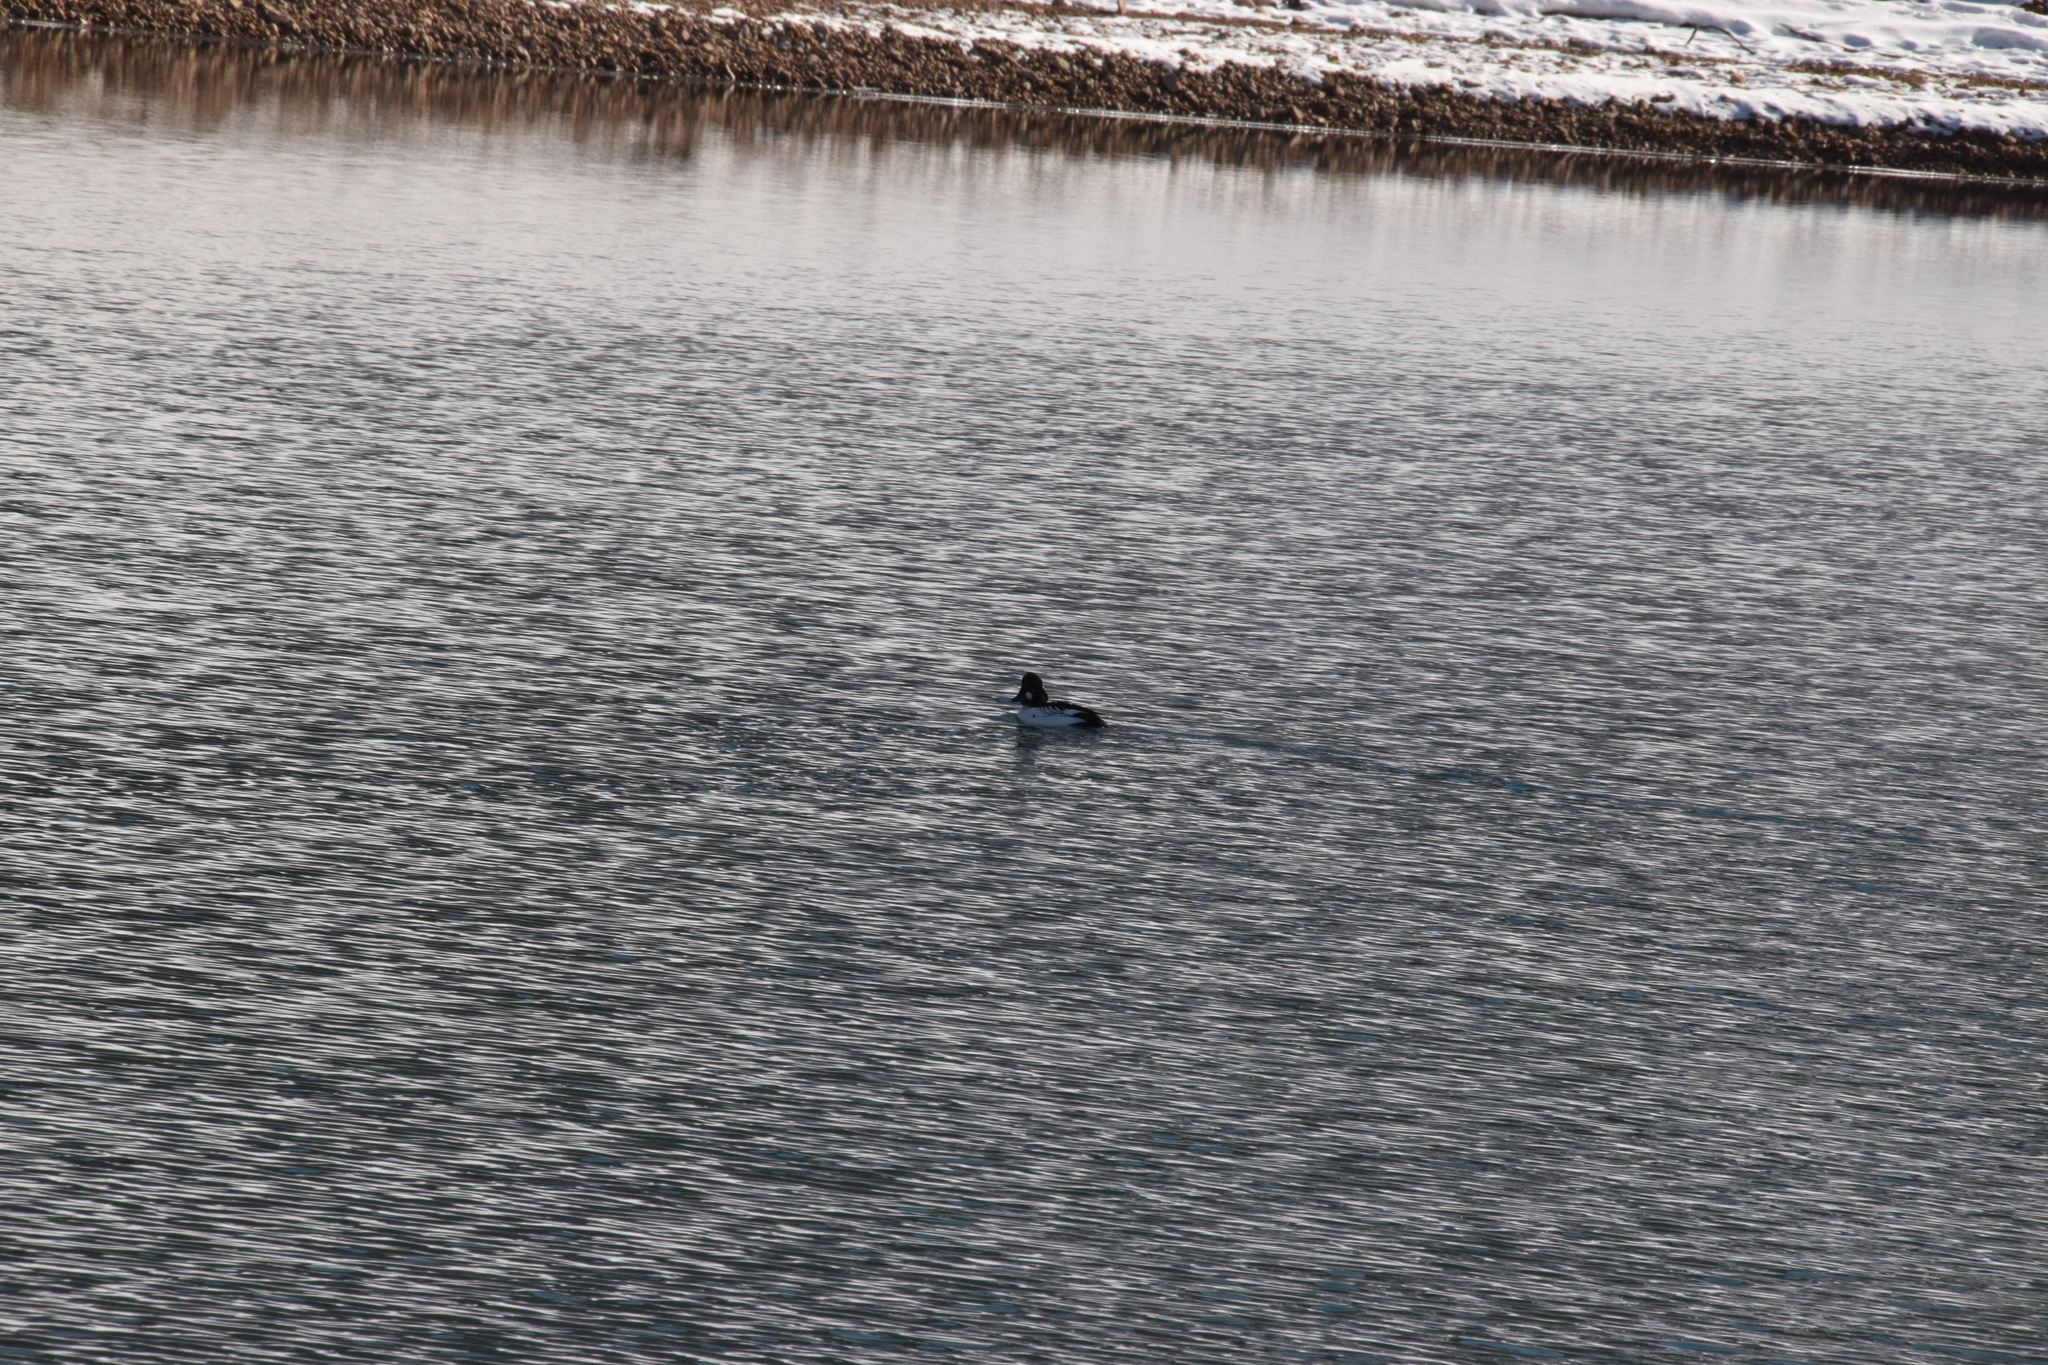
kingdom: Animalia
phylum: Chordata
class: Aves
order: Anseriformes
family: Anatidae
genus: Bucephala
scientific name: Bucephala clangula
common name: Common goldeneye
